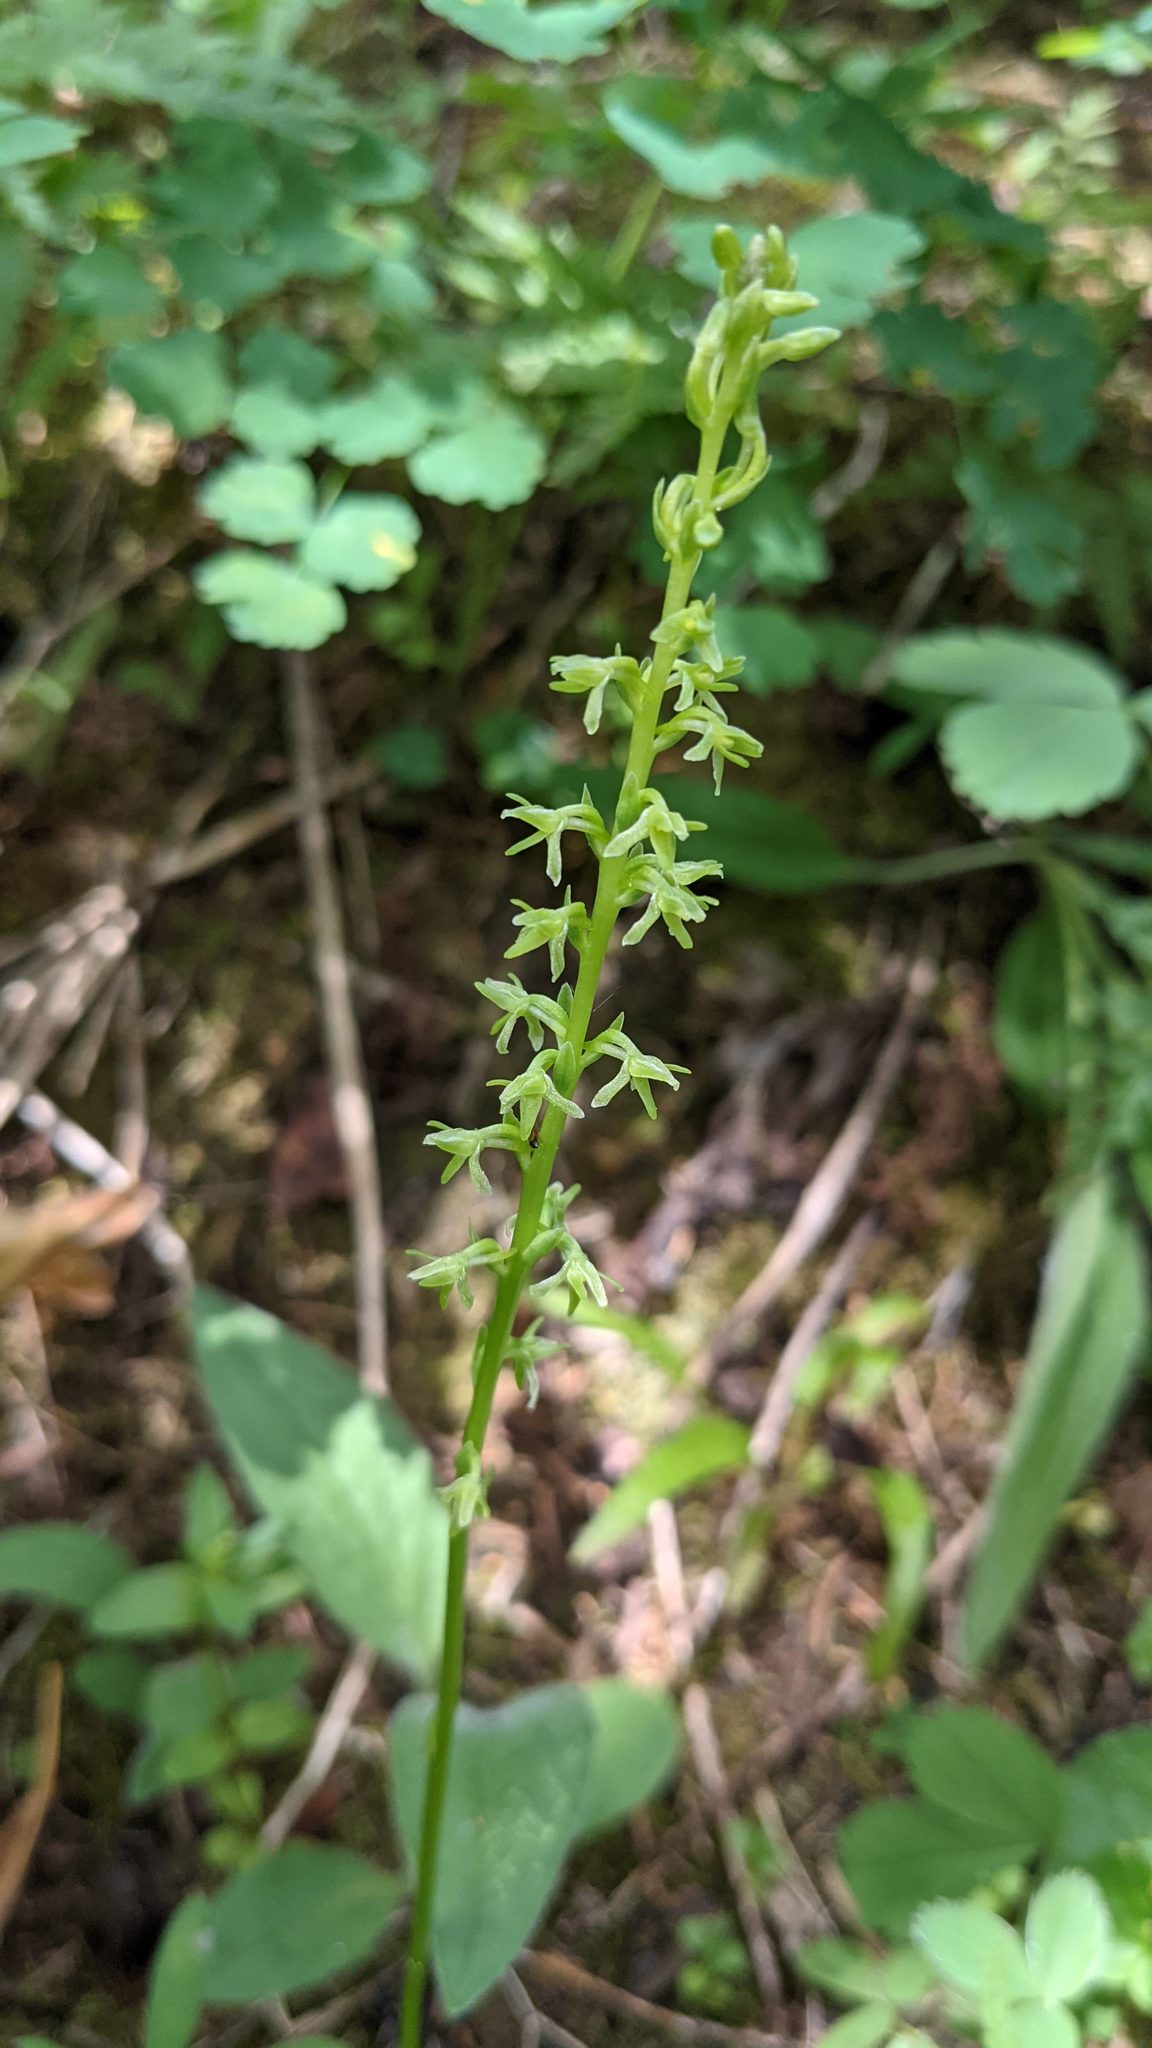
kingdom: Plantae
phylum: Tracheophyta
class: Liliopsida
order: Asparagales
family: Orchidaceae
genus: Platanthera
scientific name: Platanthera unalascensis
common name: Alaska bog orchid
